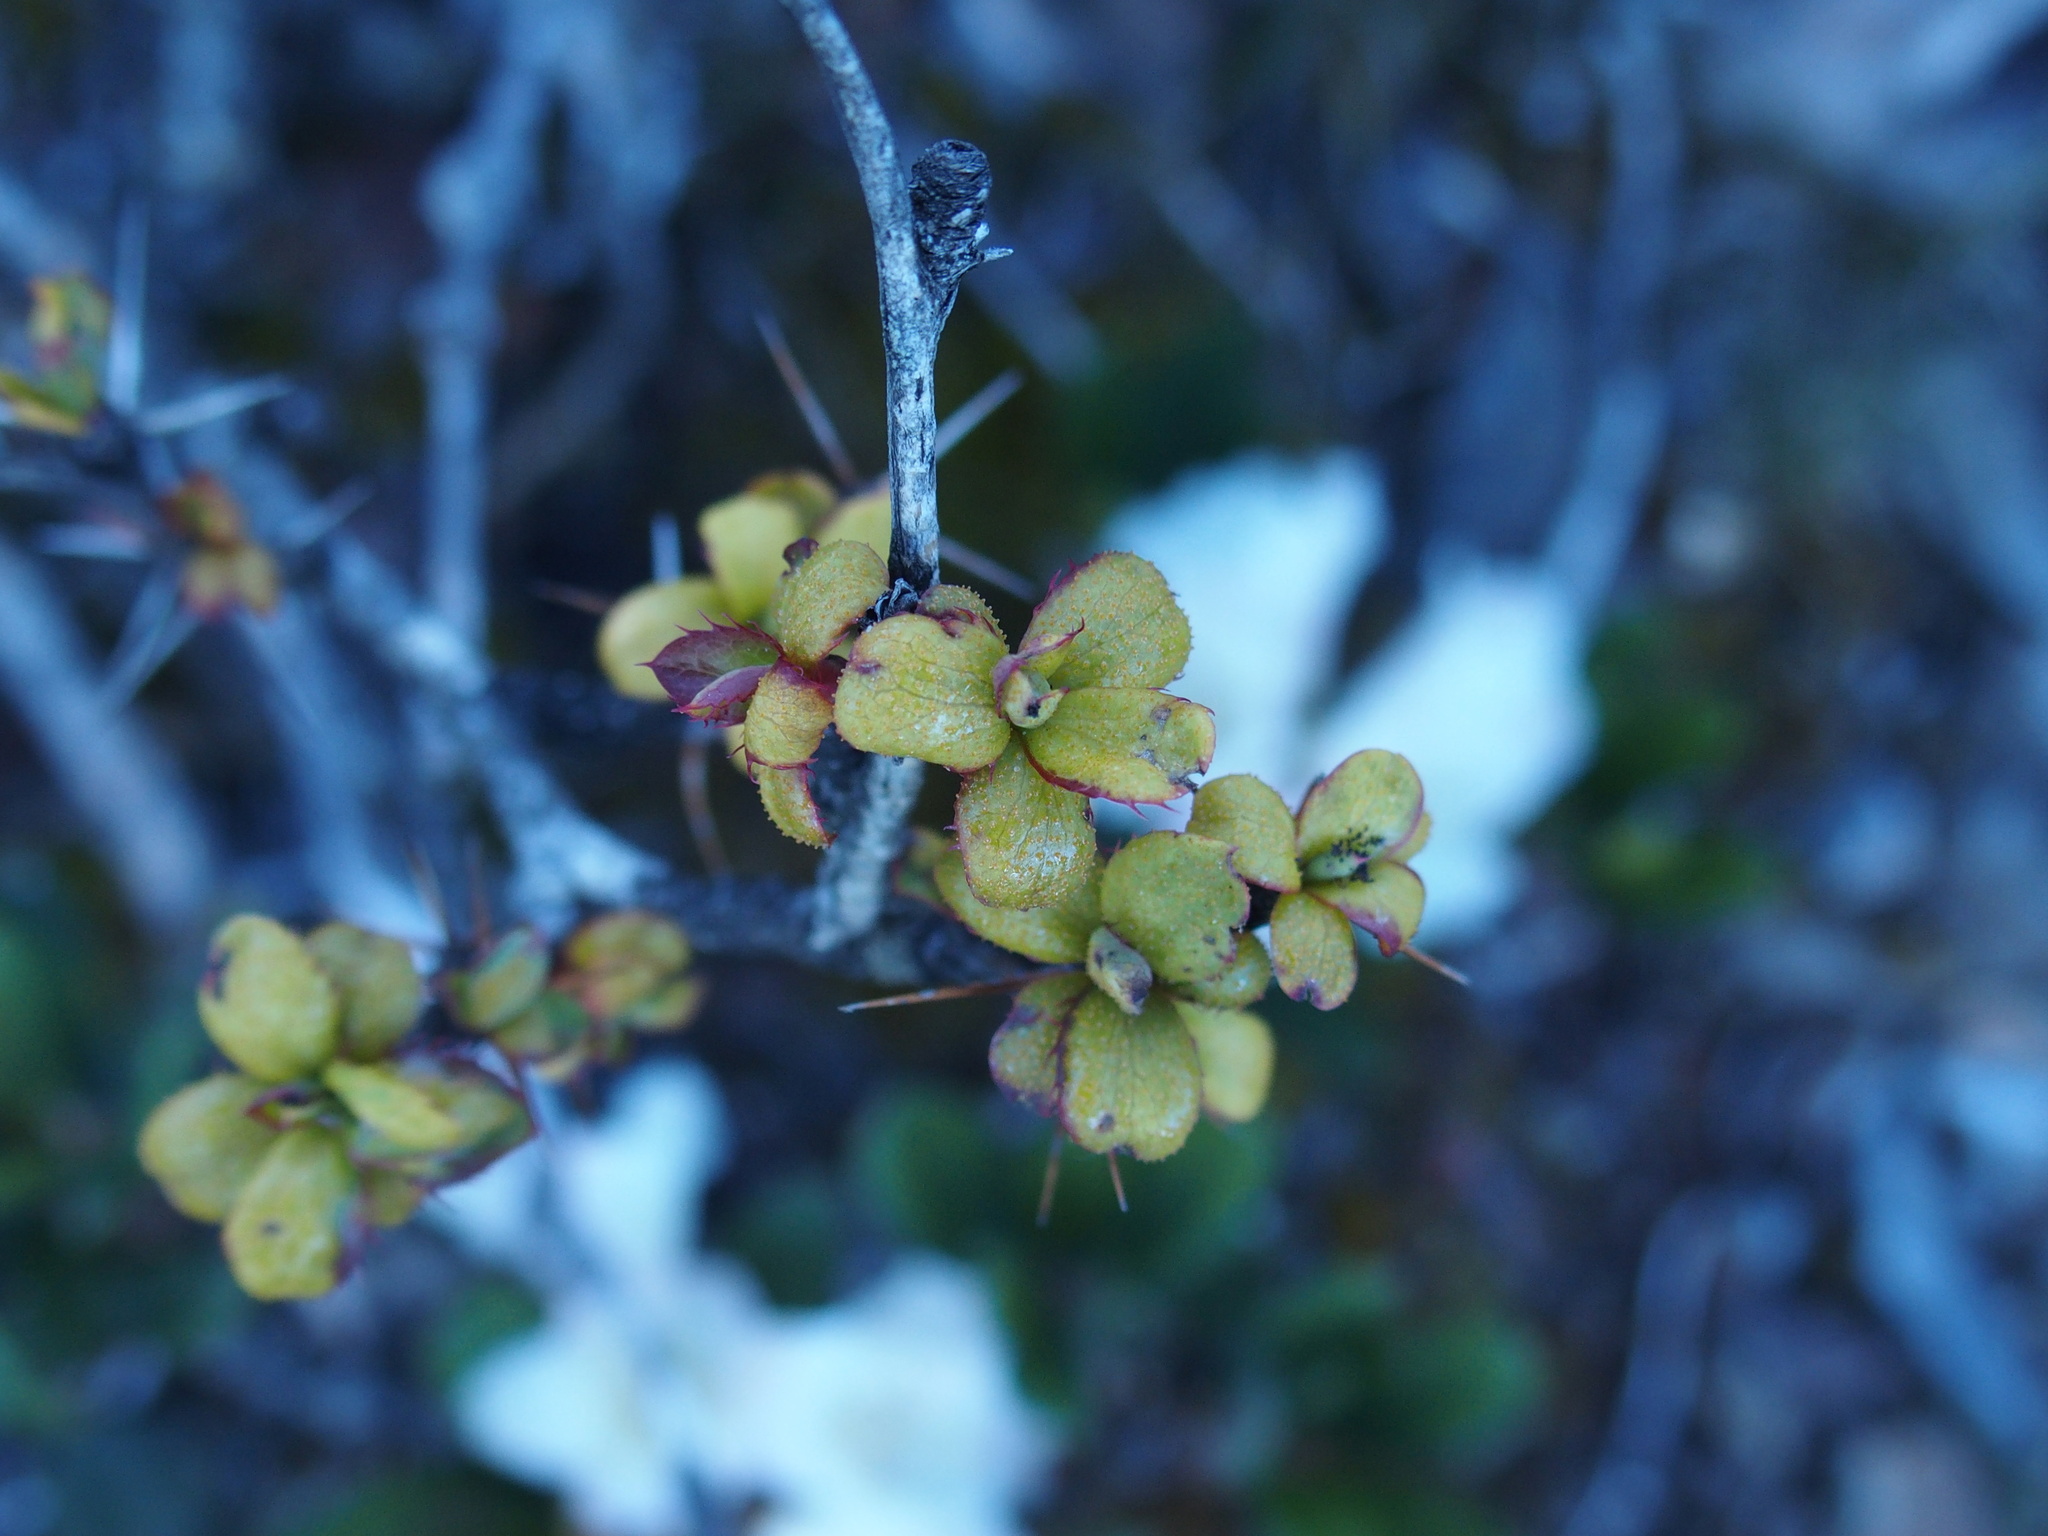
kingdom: Plantae
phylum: Tracheophyta
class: Magnoliopsida
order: Ranunculales
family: Berberidaceae
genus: Berberis
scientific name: Berberis morrisonensis
